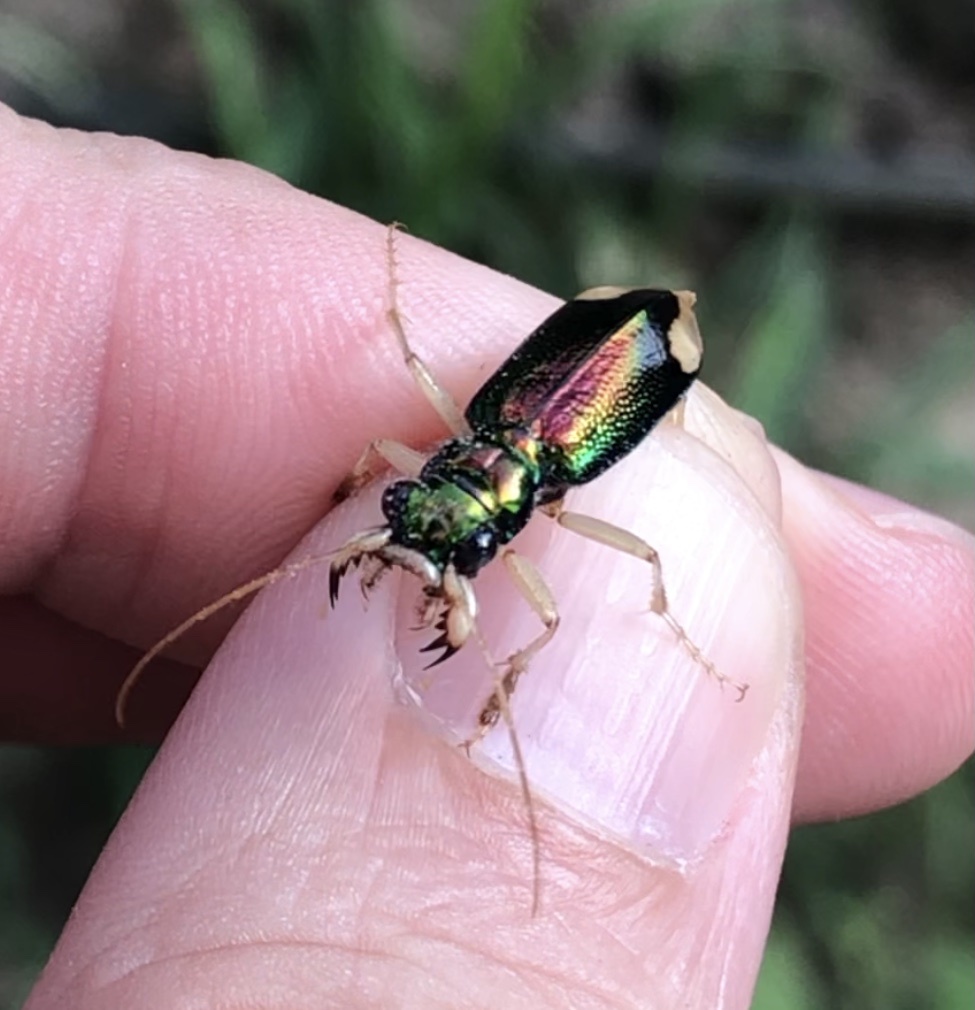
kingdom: Animalia
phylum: Arthropoda
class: Insecta
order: Coleoptera
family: Carabidae
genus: Tetracha
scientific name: Tetracha carolina
